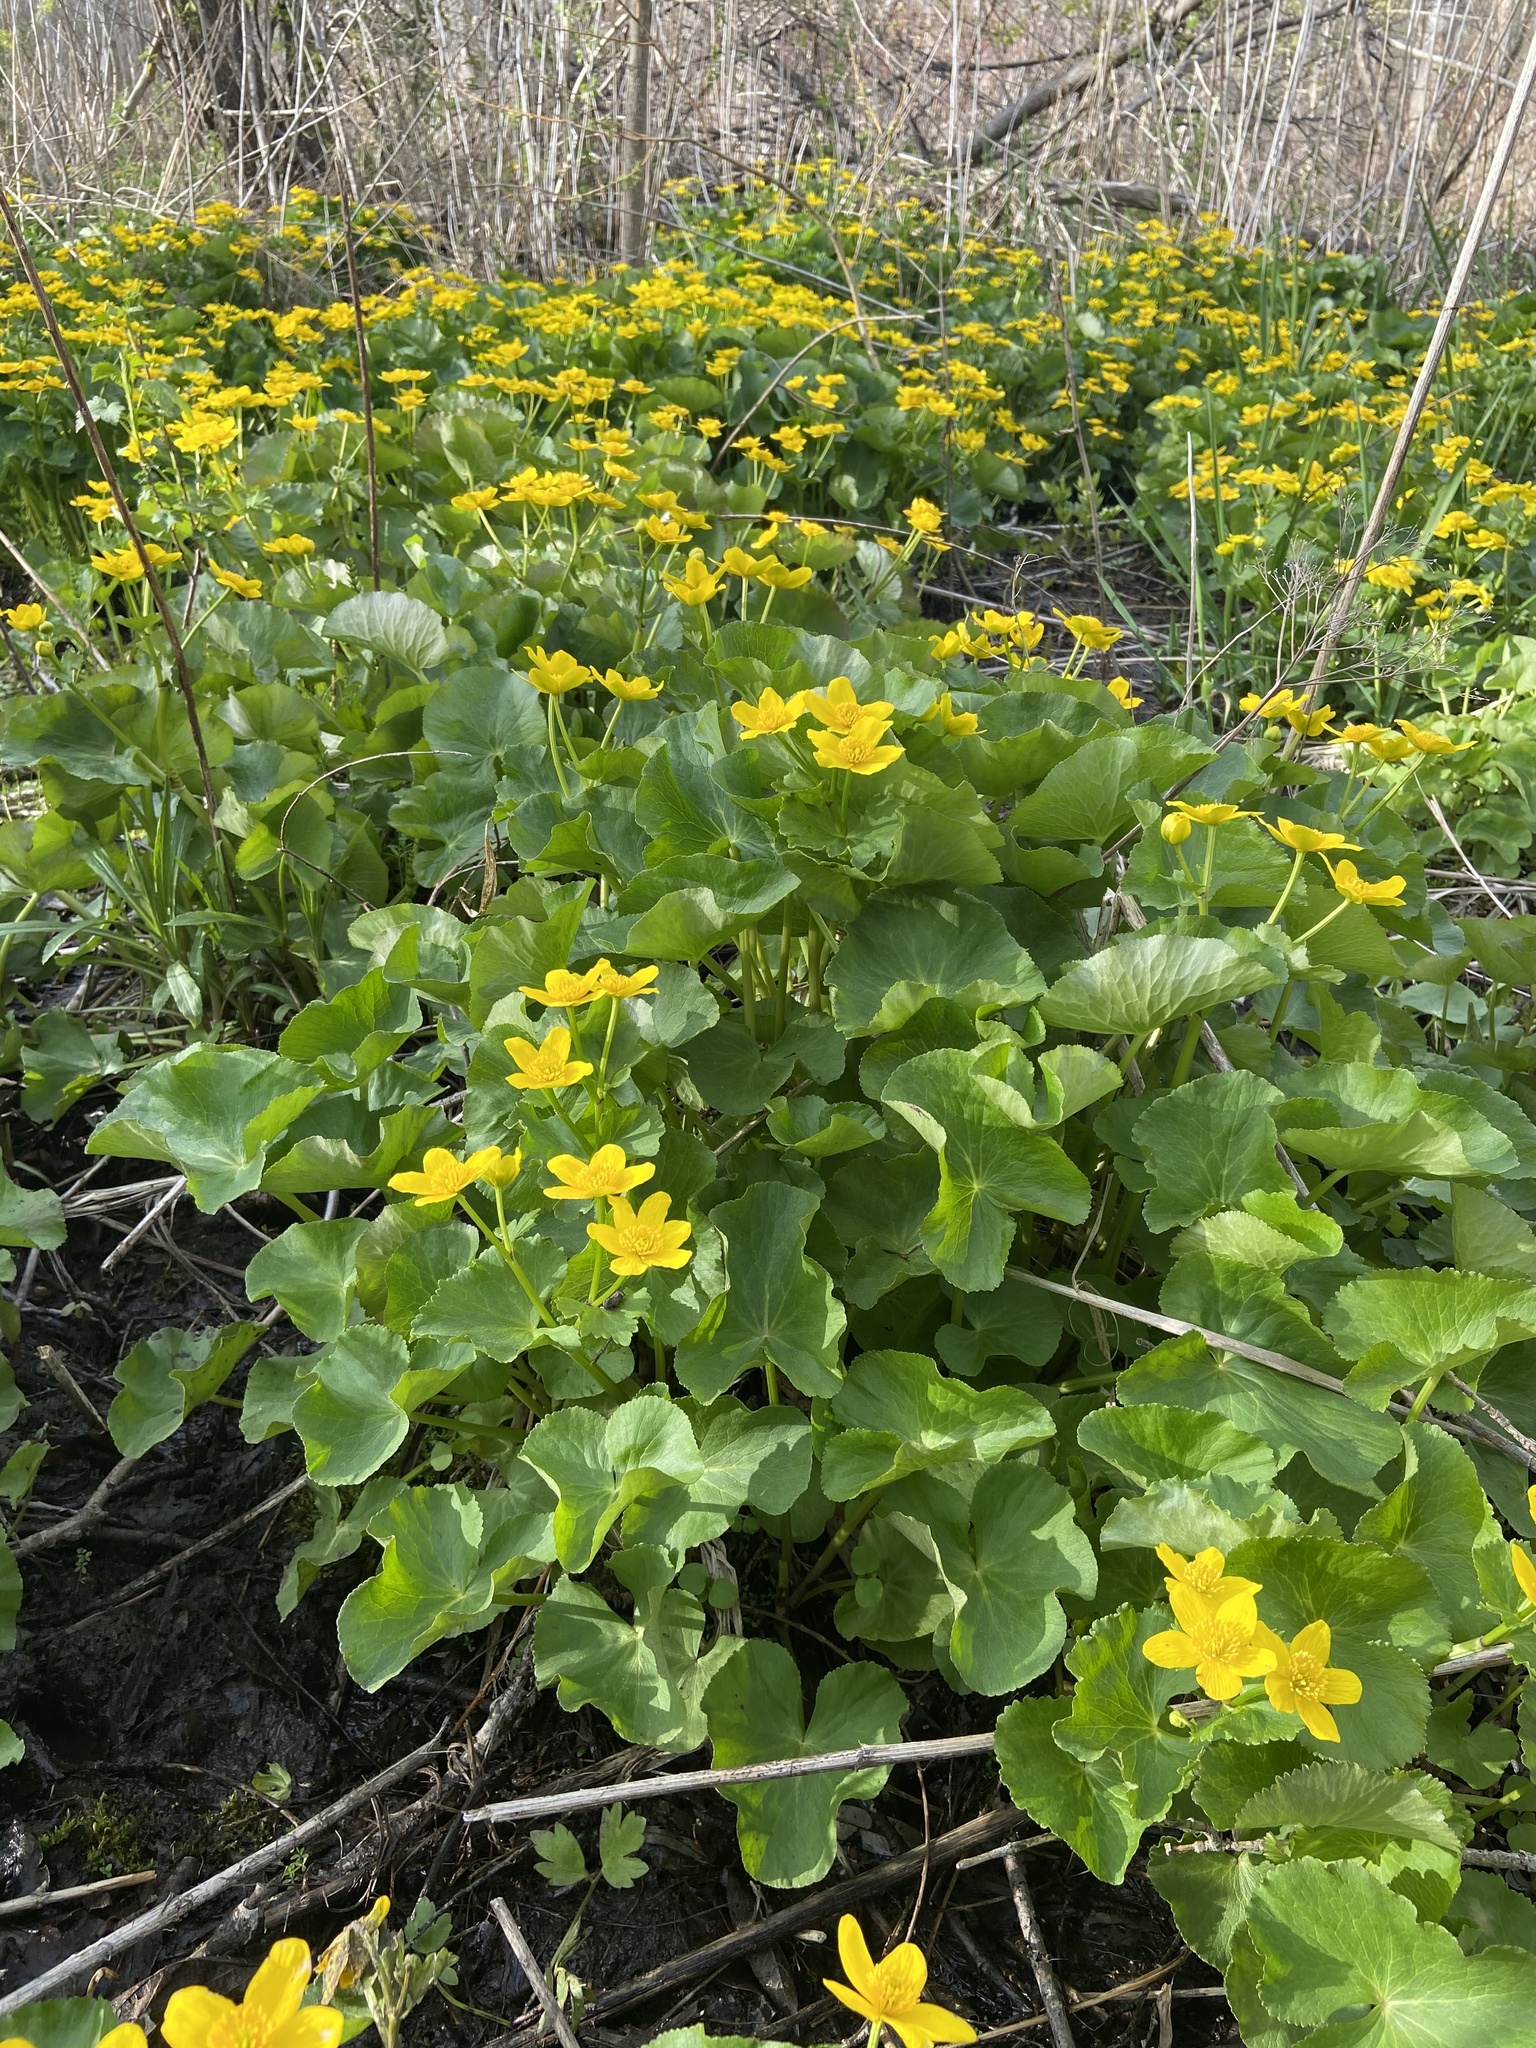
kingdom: Plantae
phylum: Tracheophyta
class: Magnoliopsida
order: Ranunculales
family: Ranunculaceae
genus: Caltha
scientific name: Caltha palustris
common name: Marsh marigold
